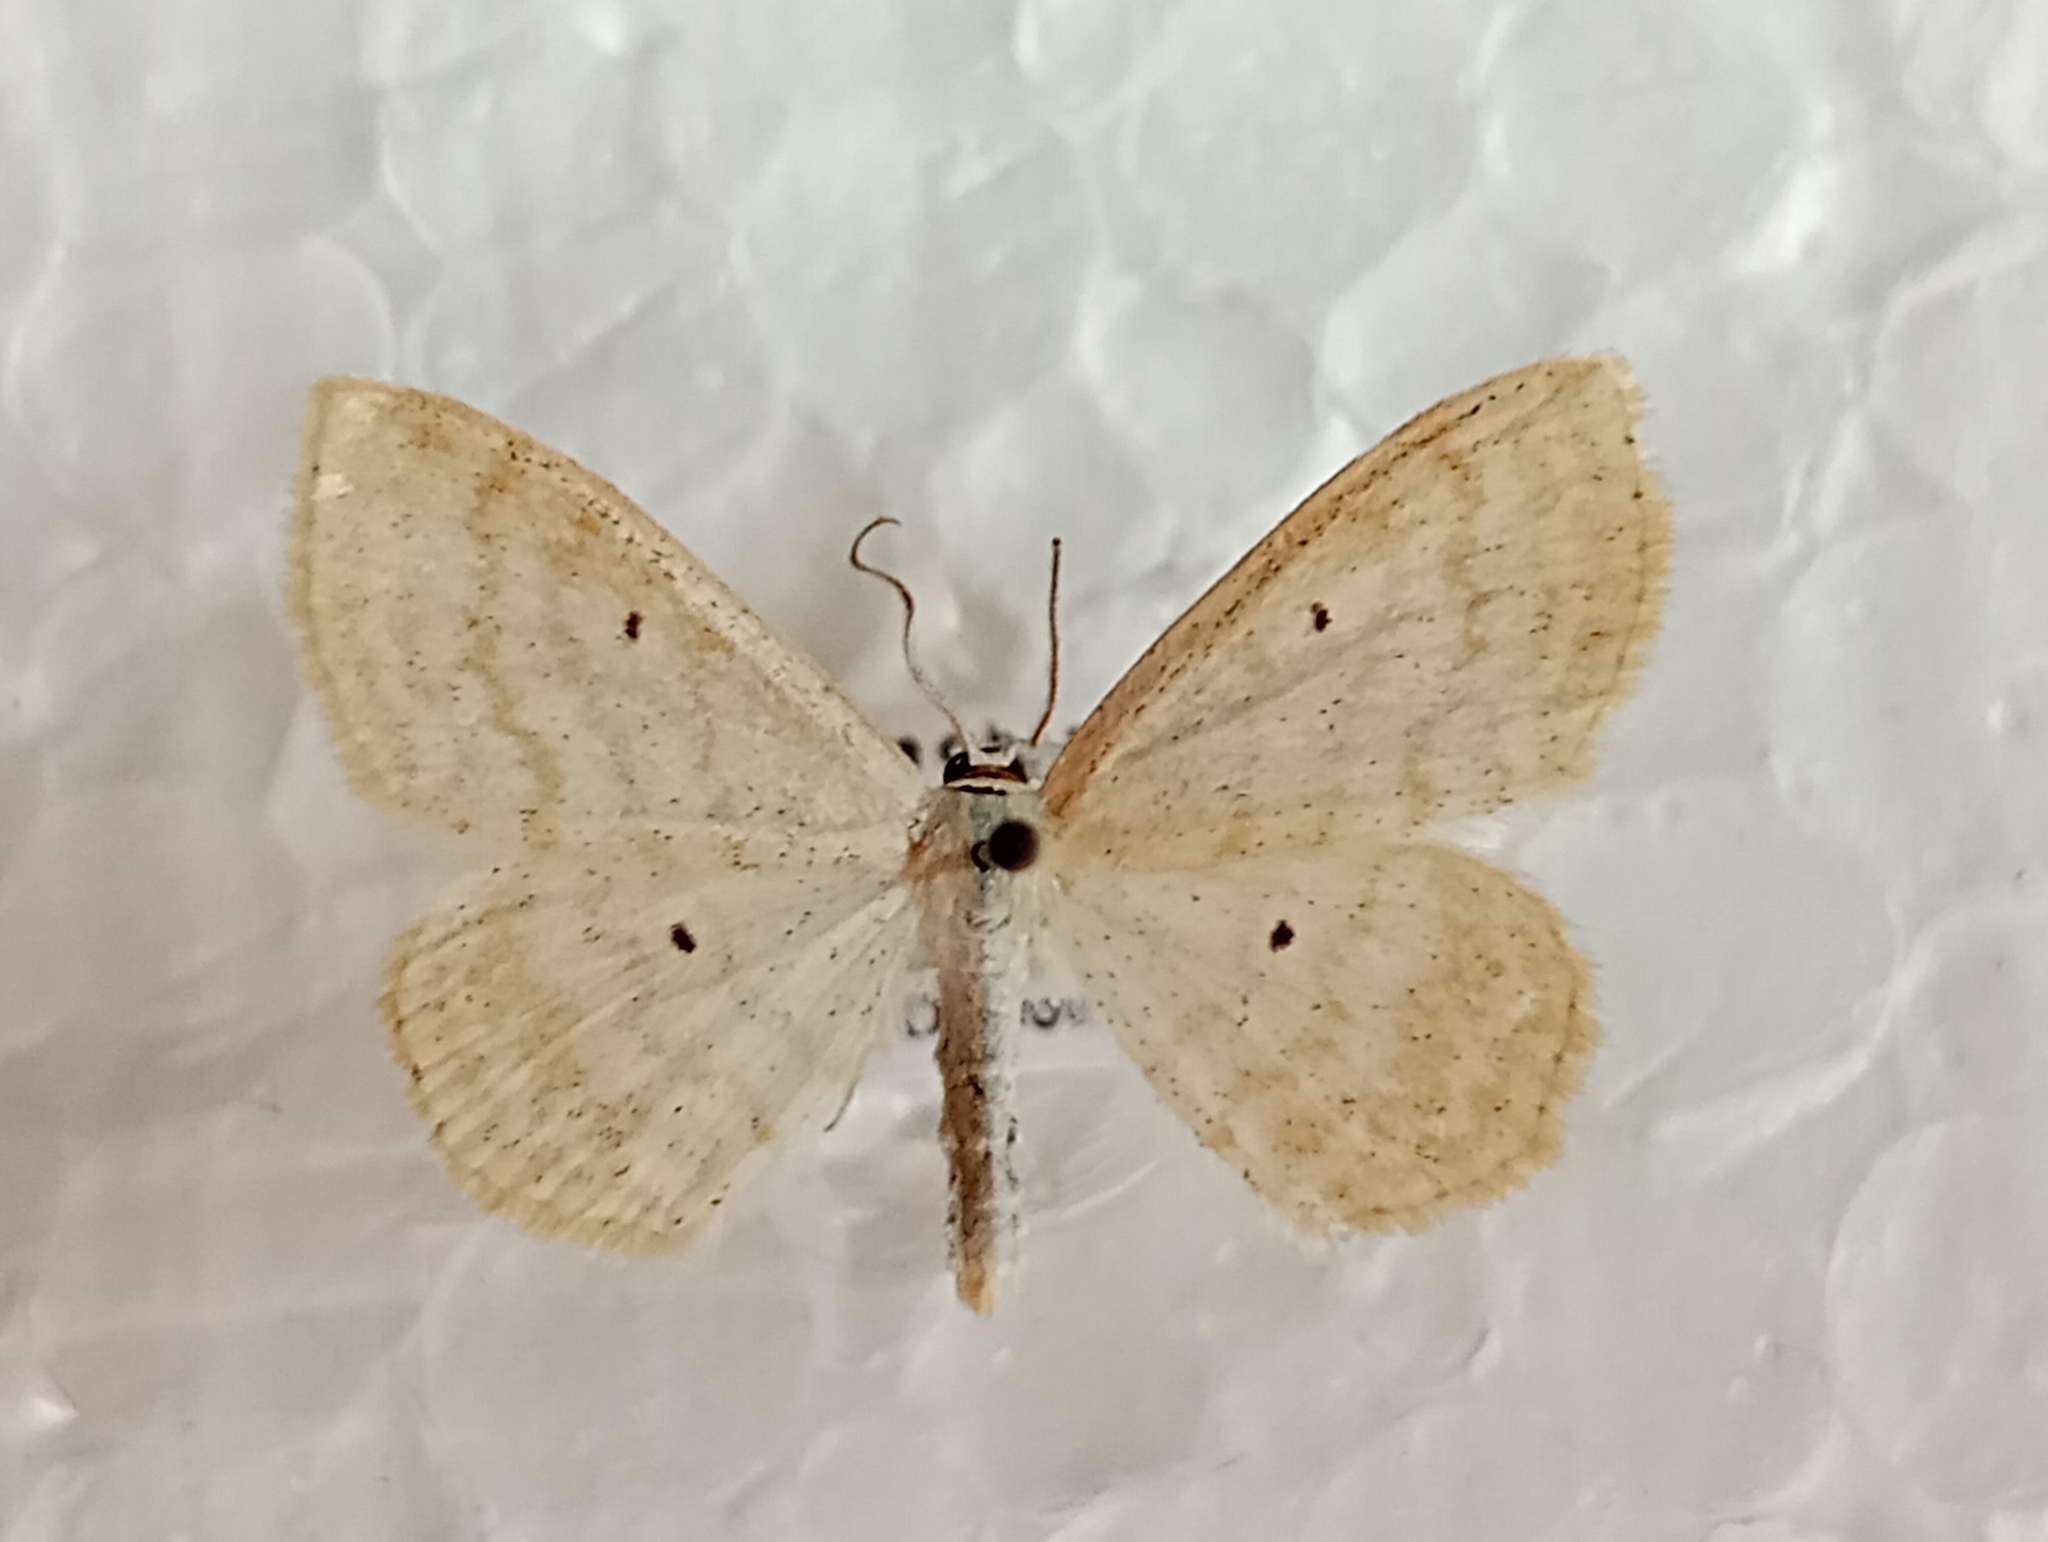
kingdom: Animalia
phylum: Arthropoda
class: Insecta
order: Lepidoptera
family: Geometridae
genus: Scopula
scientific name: Scopula immutata
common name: Lesser cream wave
